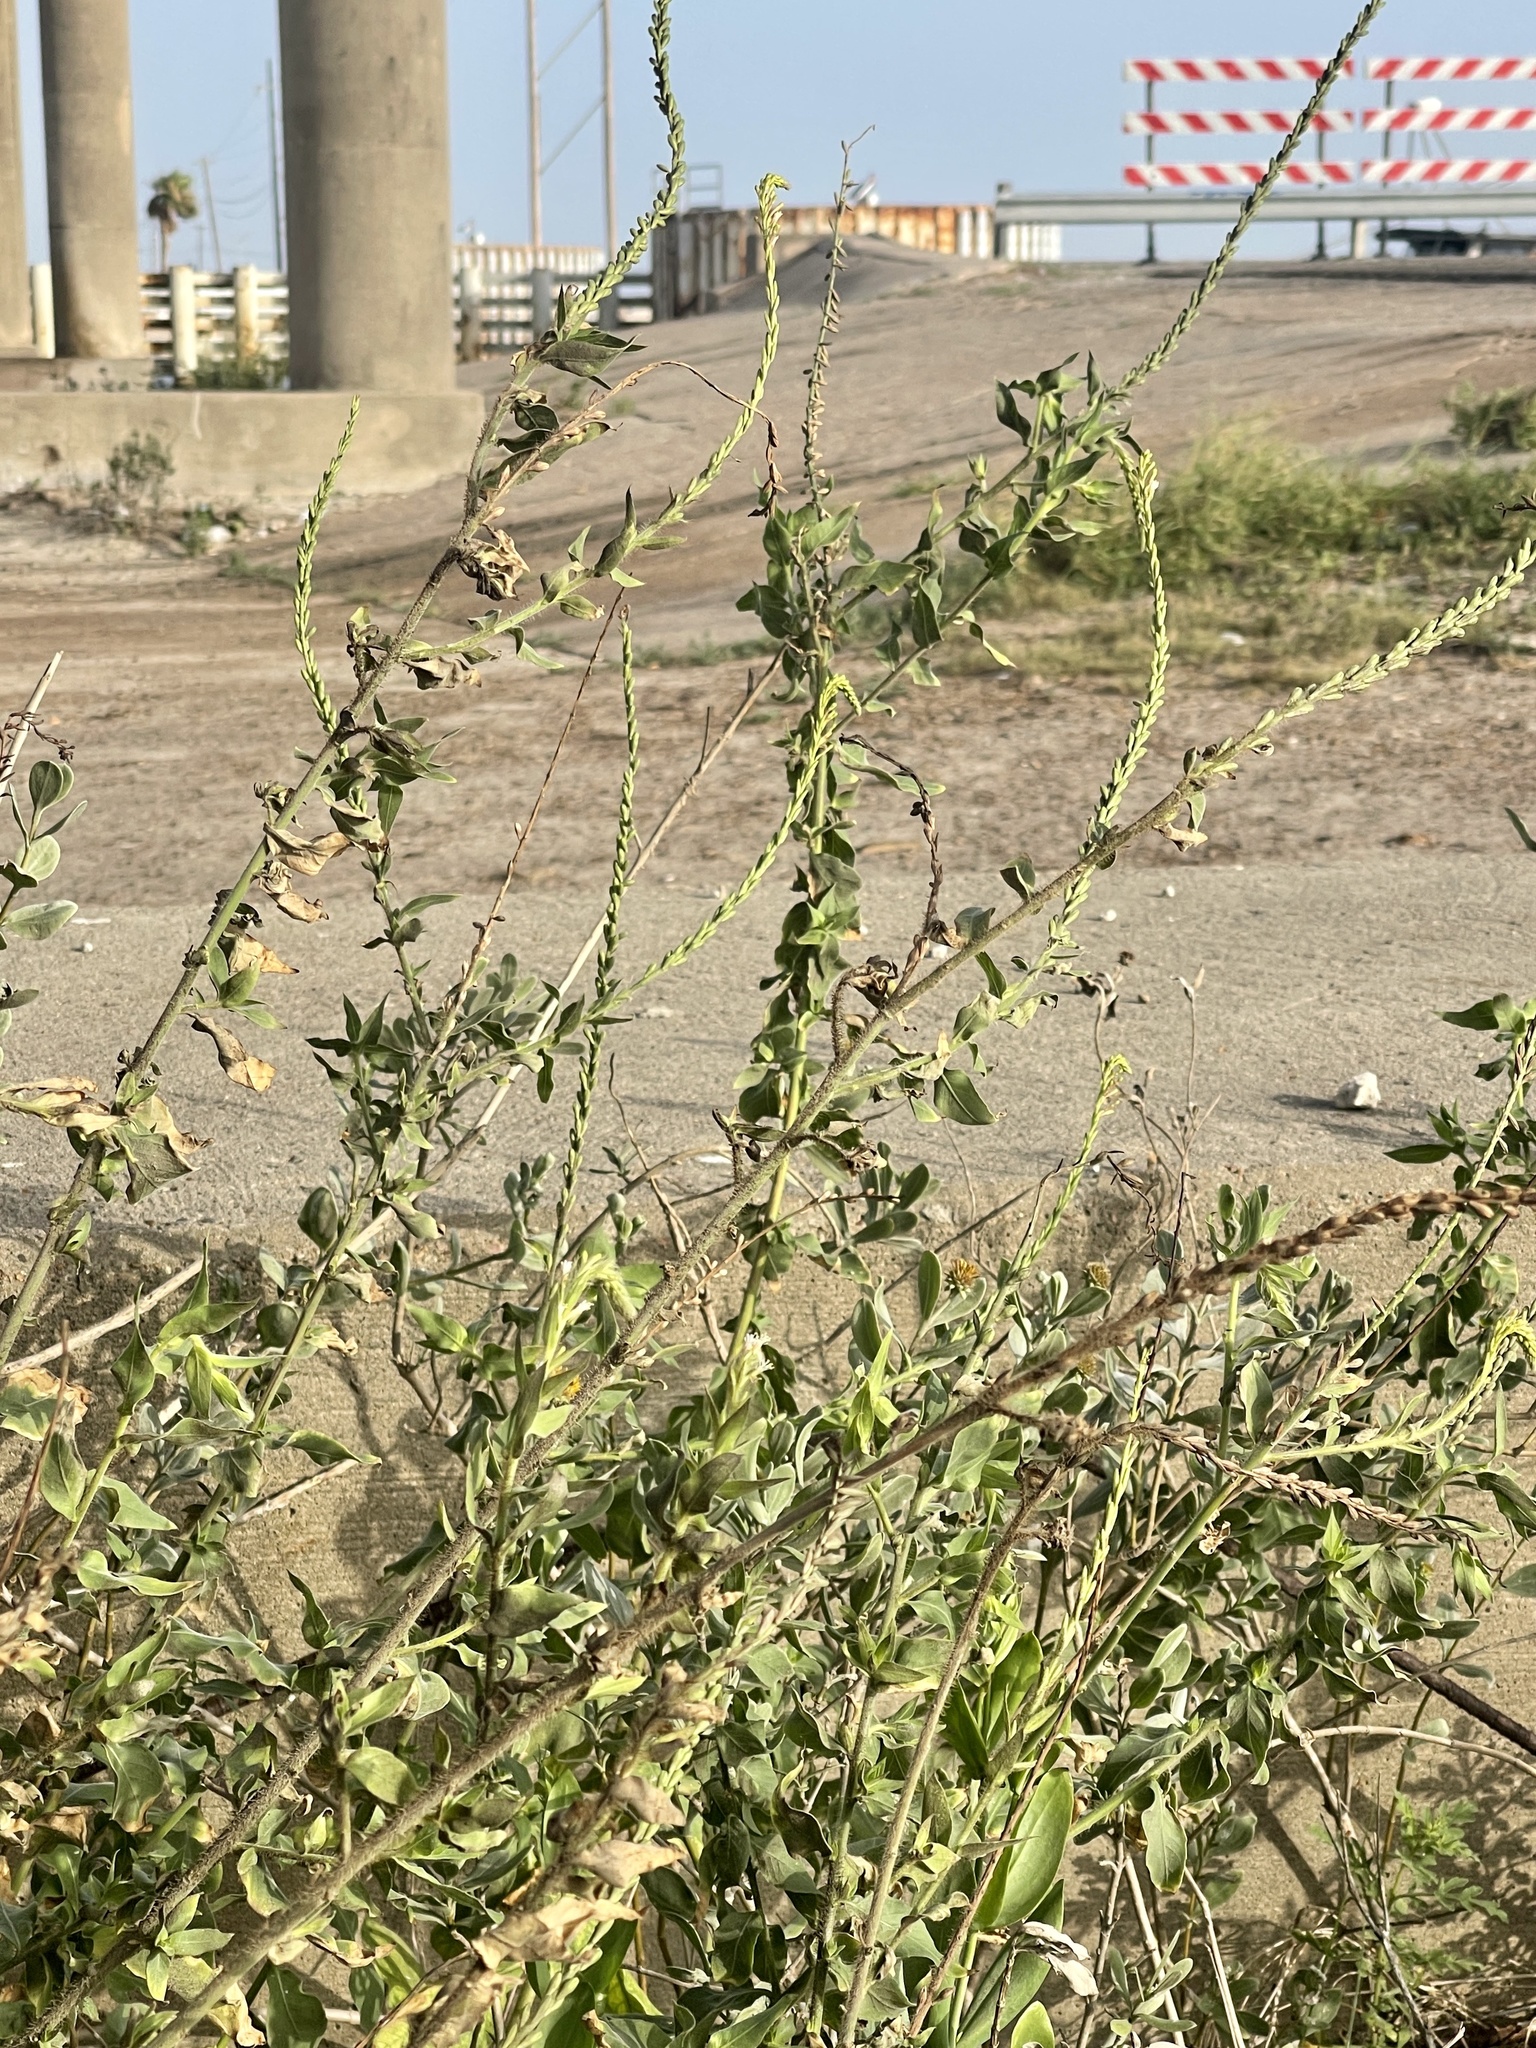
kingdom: Plantae
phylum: Tracheophyta
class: Magnoliopsida
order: Myrtales
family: Onagraceae
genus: Oenothera
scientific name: Oenothera curtiflora
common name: Velvetweed
